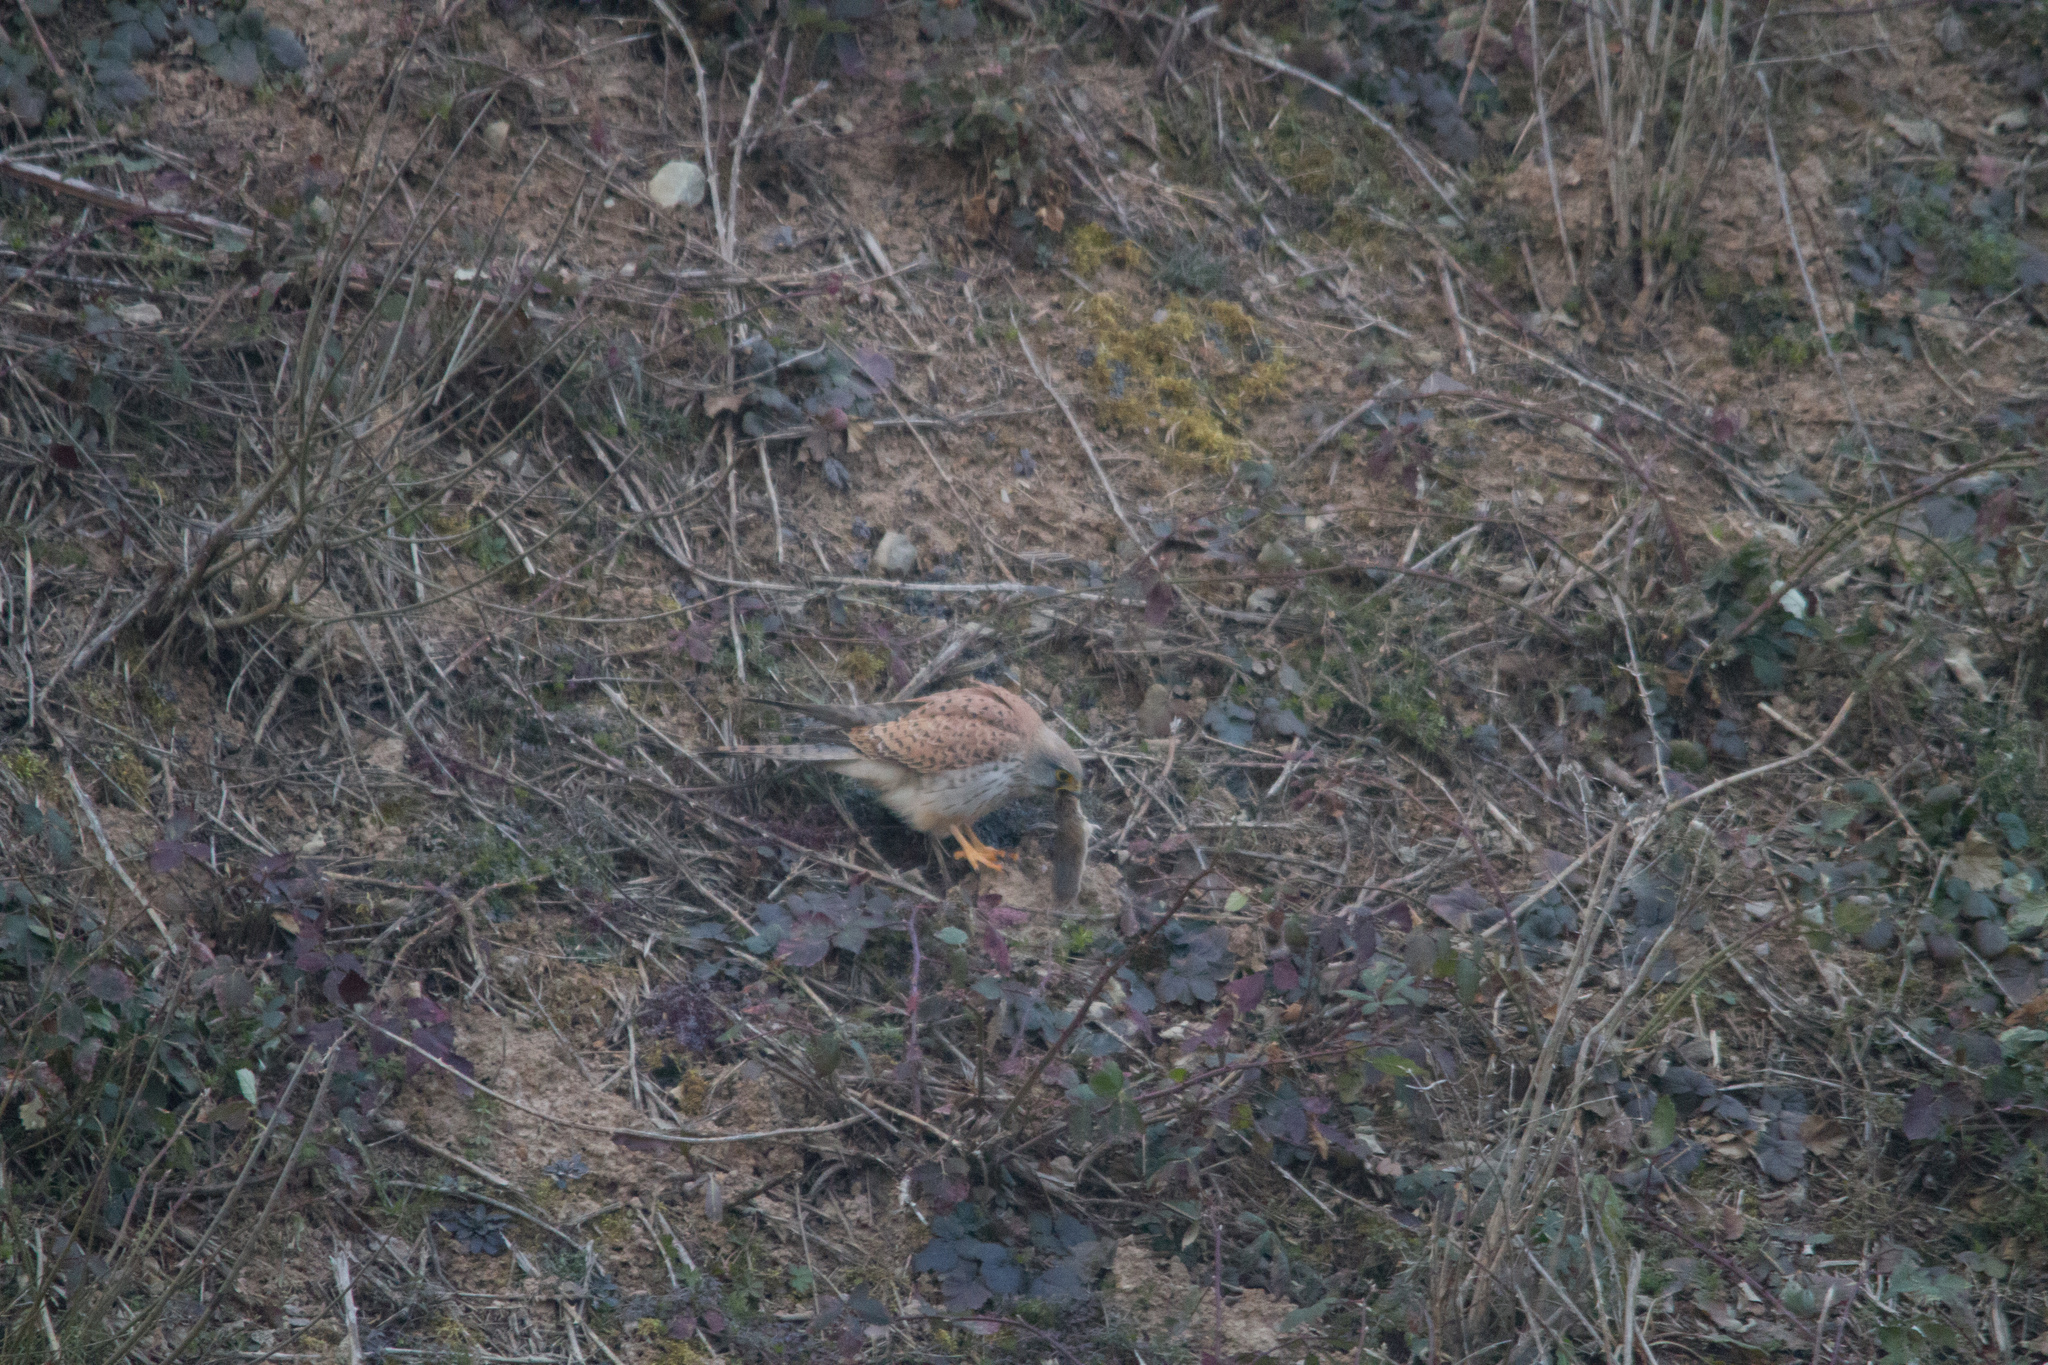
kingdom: Animalia
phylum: Chordata
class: Aves
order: Falconiformes
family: Falconidae
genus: Falco
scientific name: Falco tinnunculus
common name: Common kestrel
